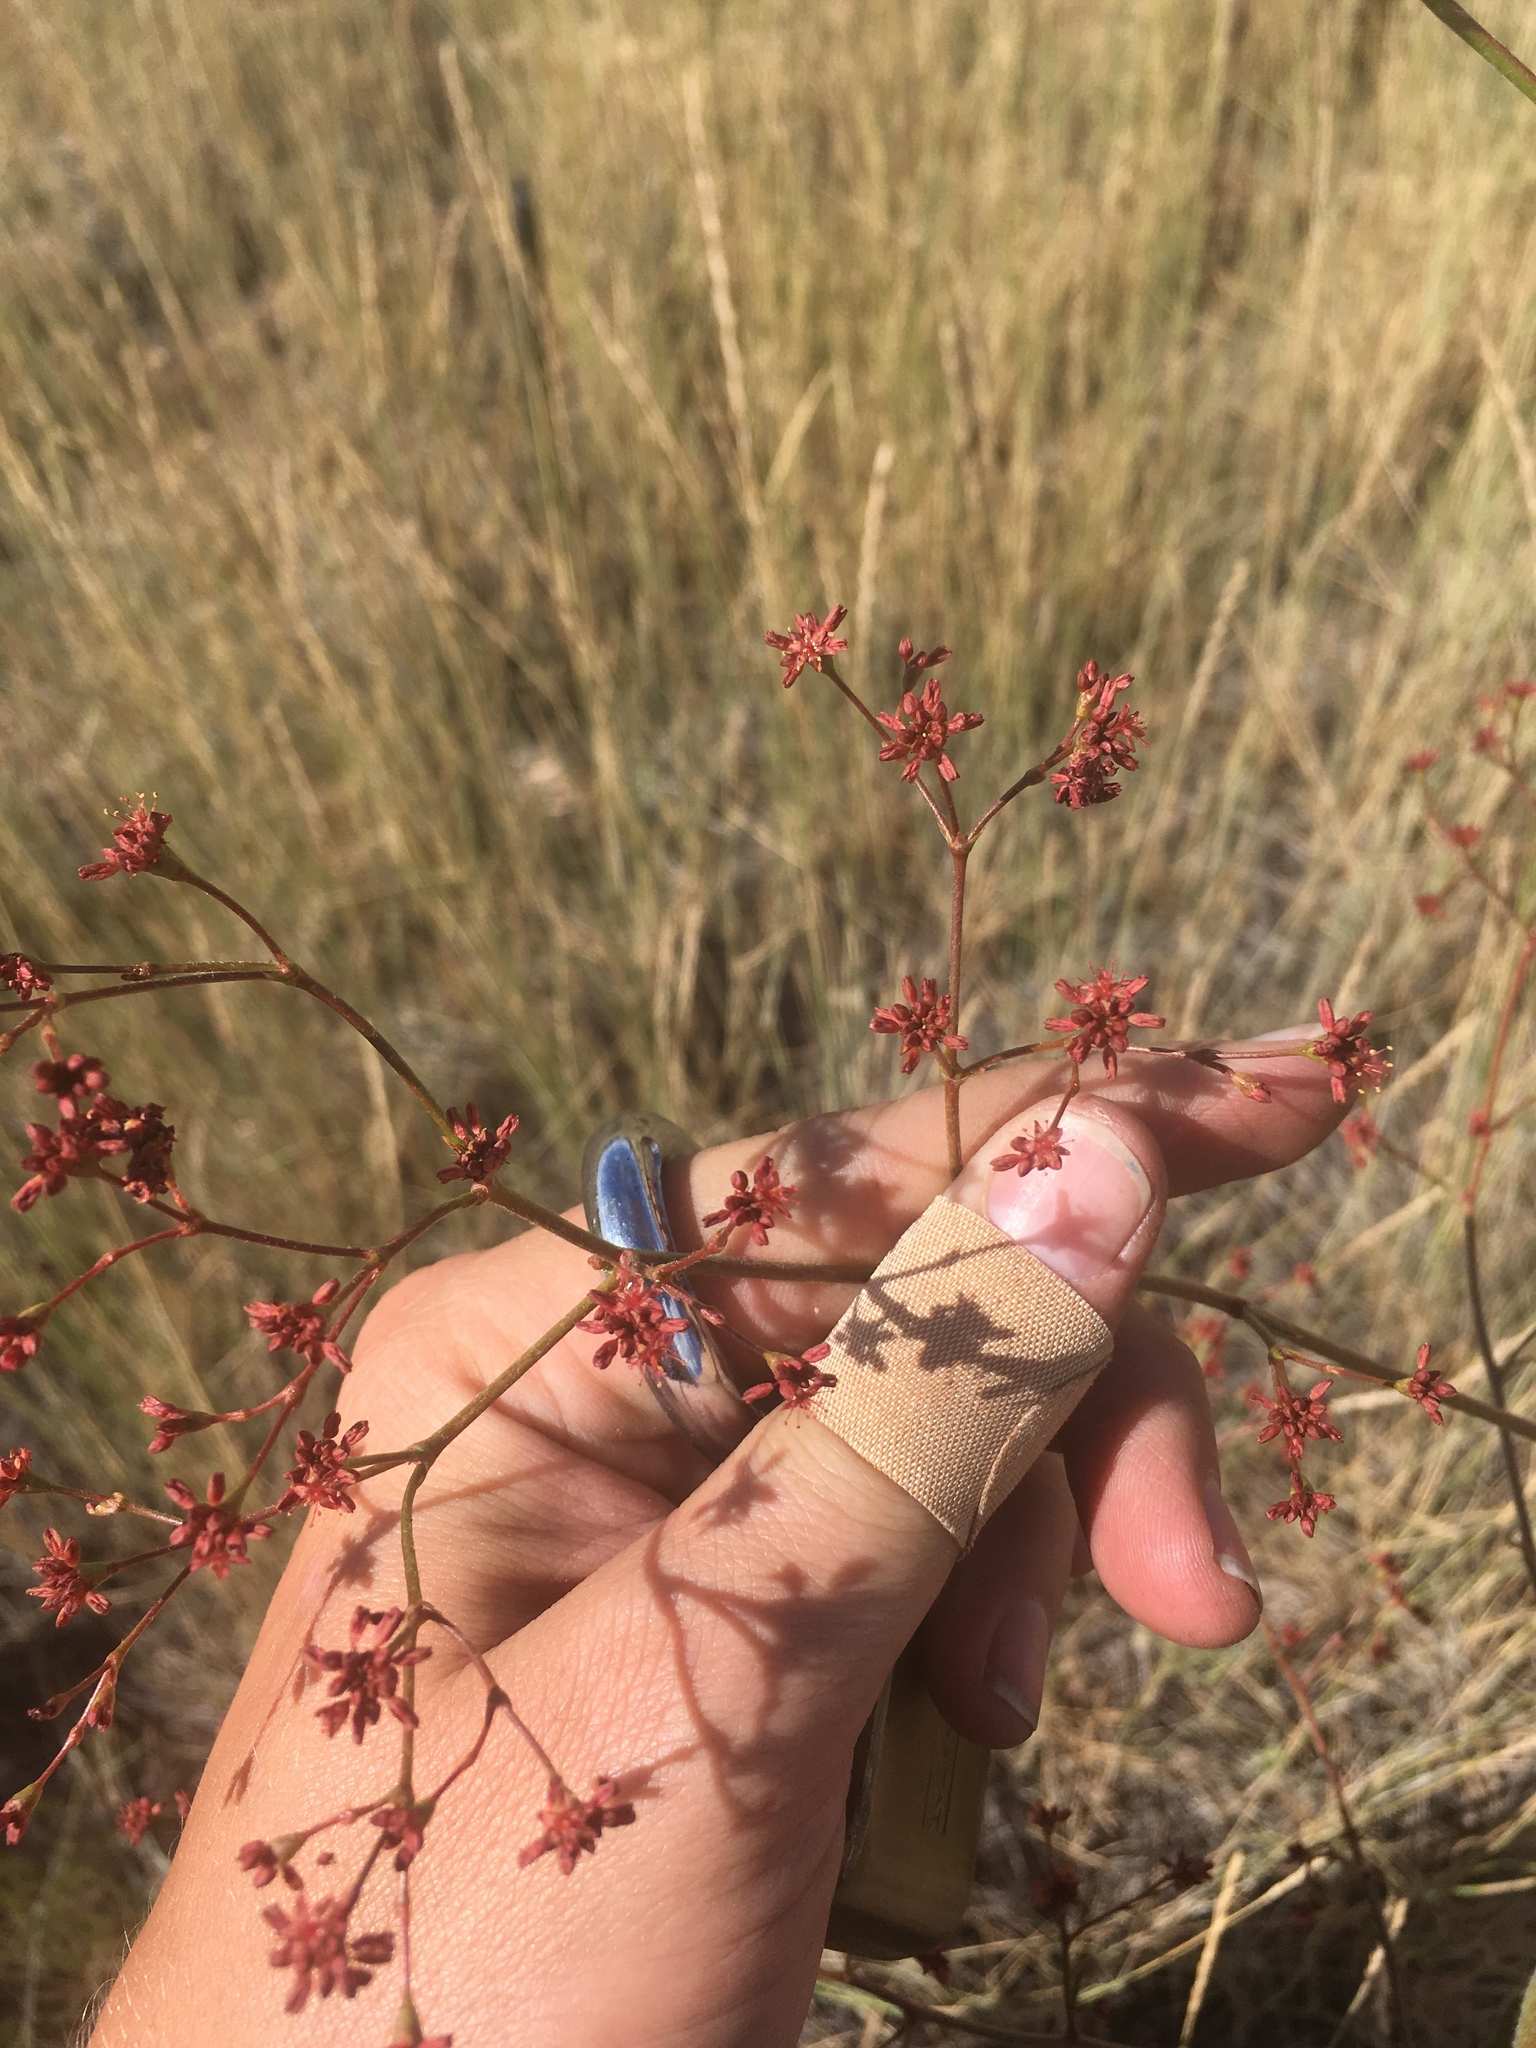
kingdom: Plantae
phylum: Tracheophyta
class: Magnoliopsida
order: Caryophyllales
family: Polygonaceae
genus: Eriogonum
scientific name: Eriogonum alatum
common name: Winged eriogonum
